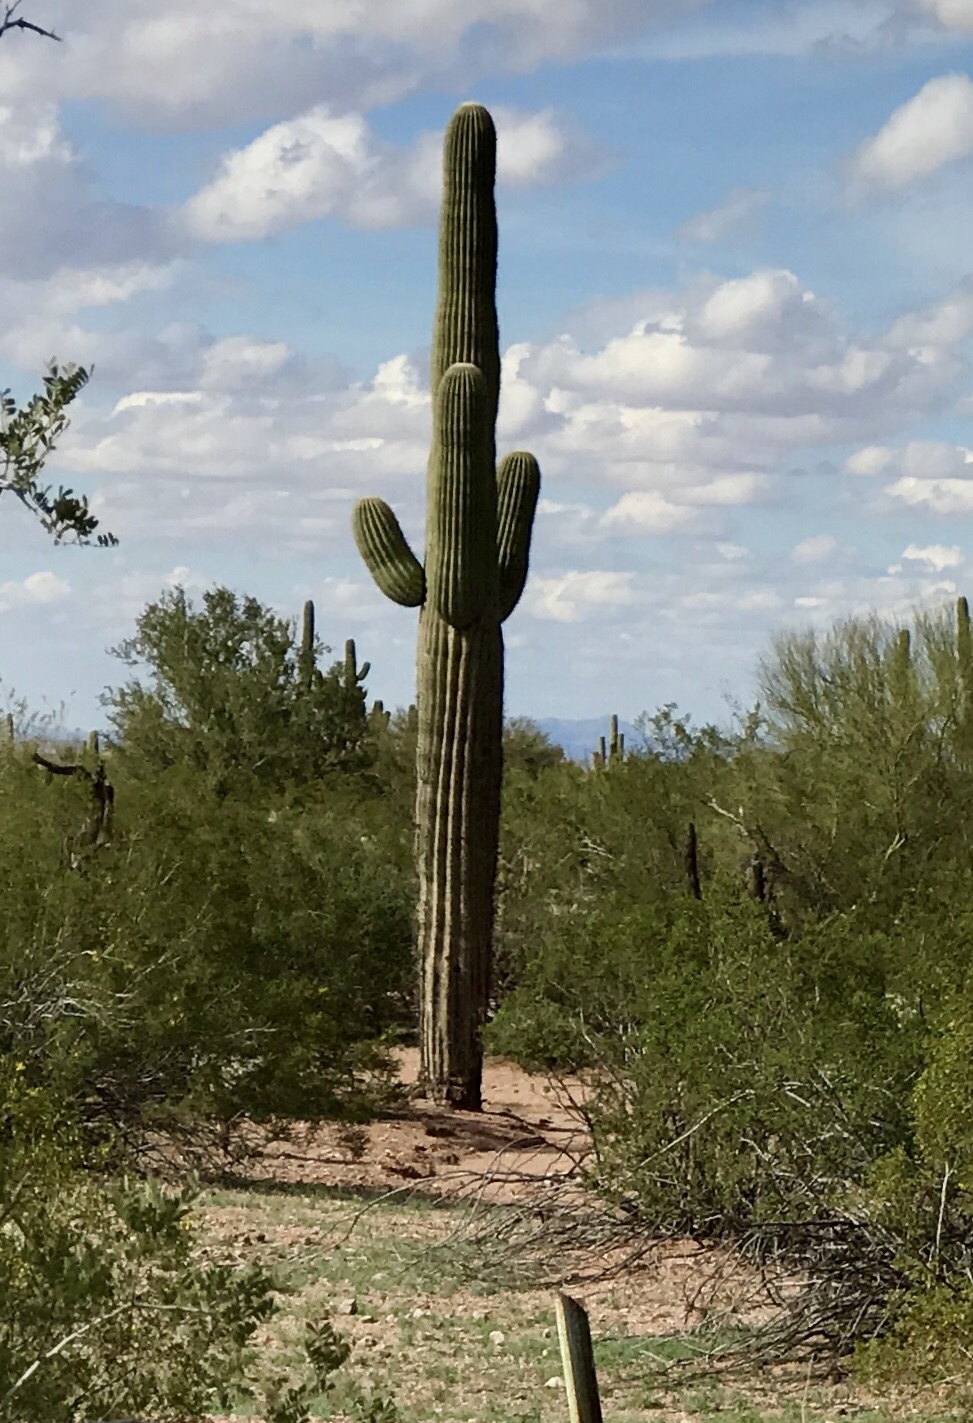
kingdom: Plantae
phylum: Tracheophyta
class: Magnoliopsida
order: Caryophyllales
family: Cactaceae
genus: Carnegiea
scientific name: Carnegiea gigantea
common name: Saguaro
